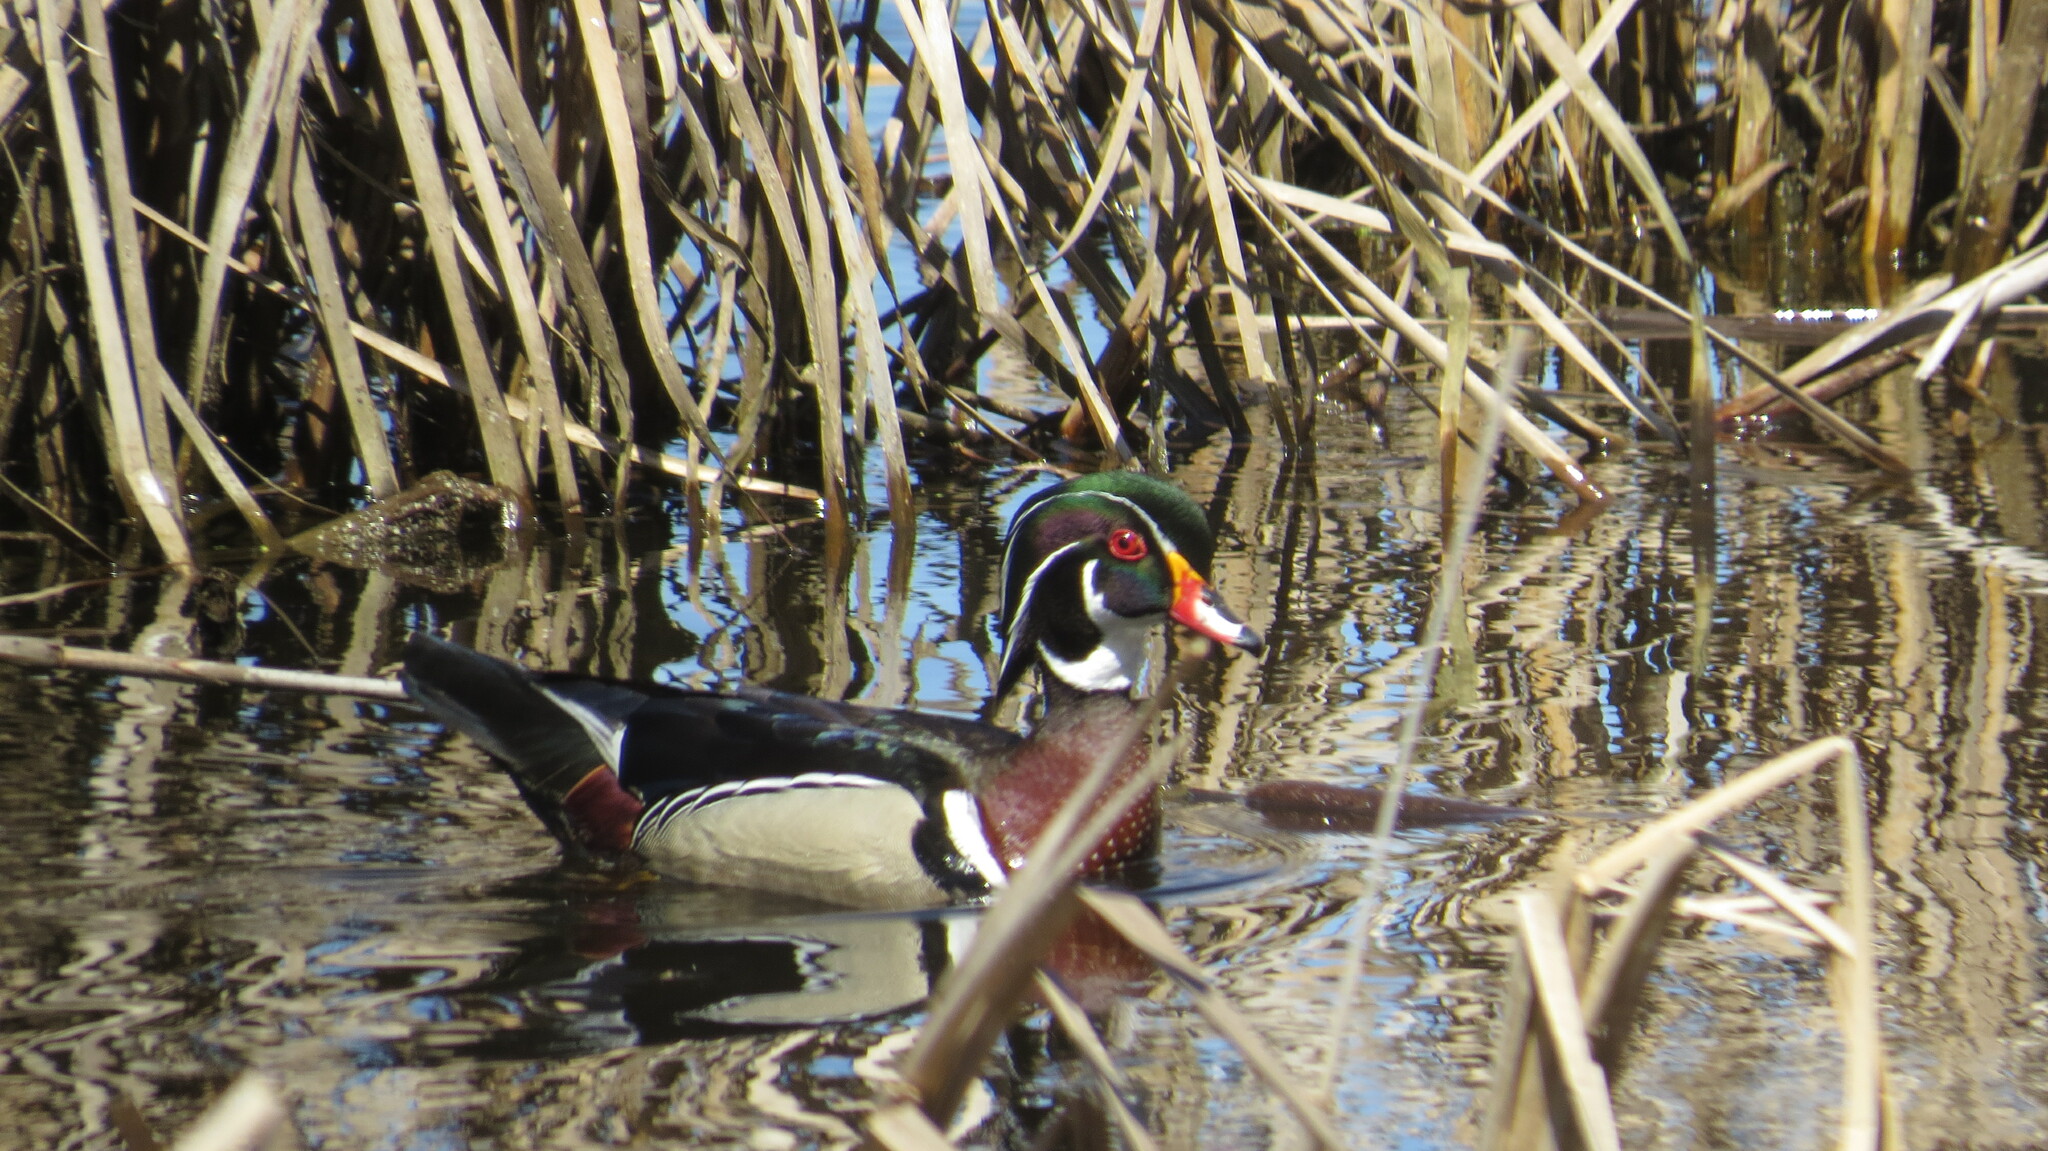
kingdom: Animalia
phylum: Chordata
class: Aves
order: Anseriformes
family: Anatidae
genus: Aix
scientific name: Aix sponsa
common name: Wood duck
